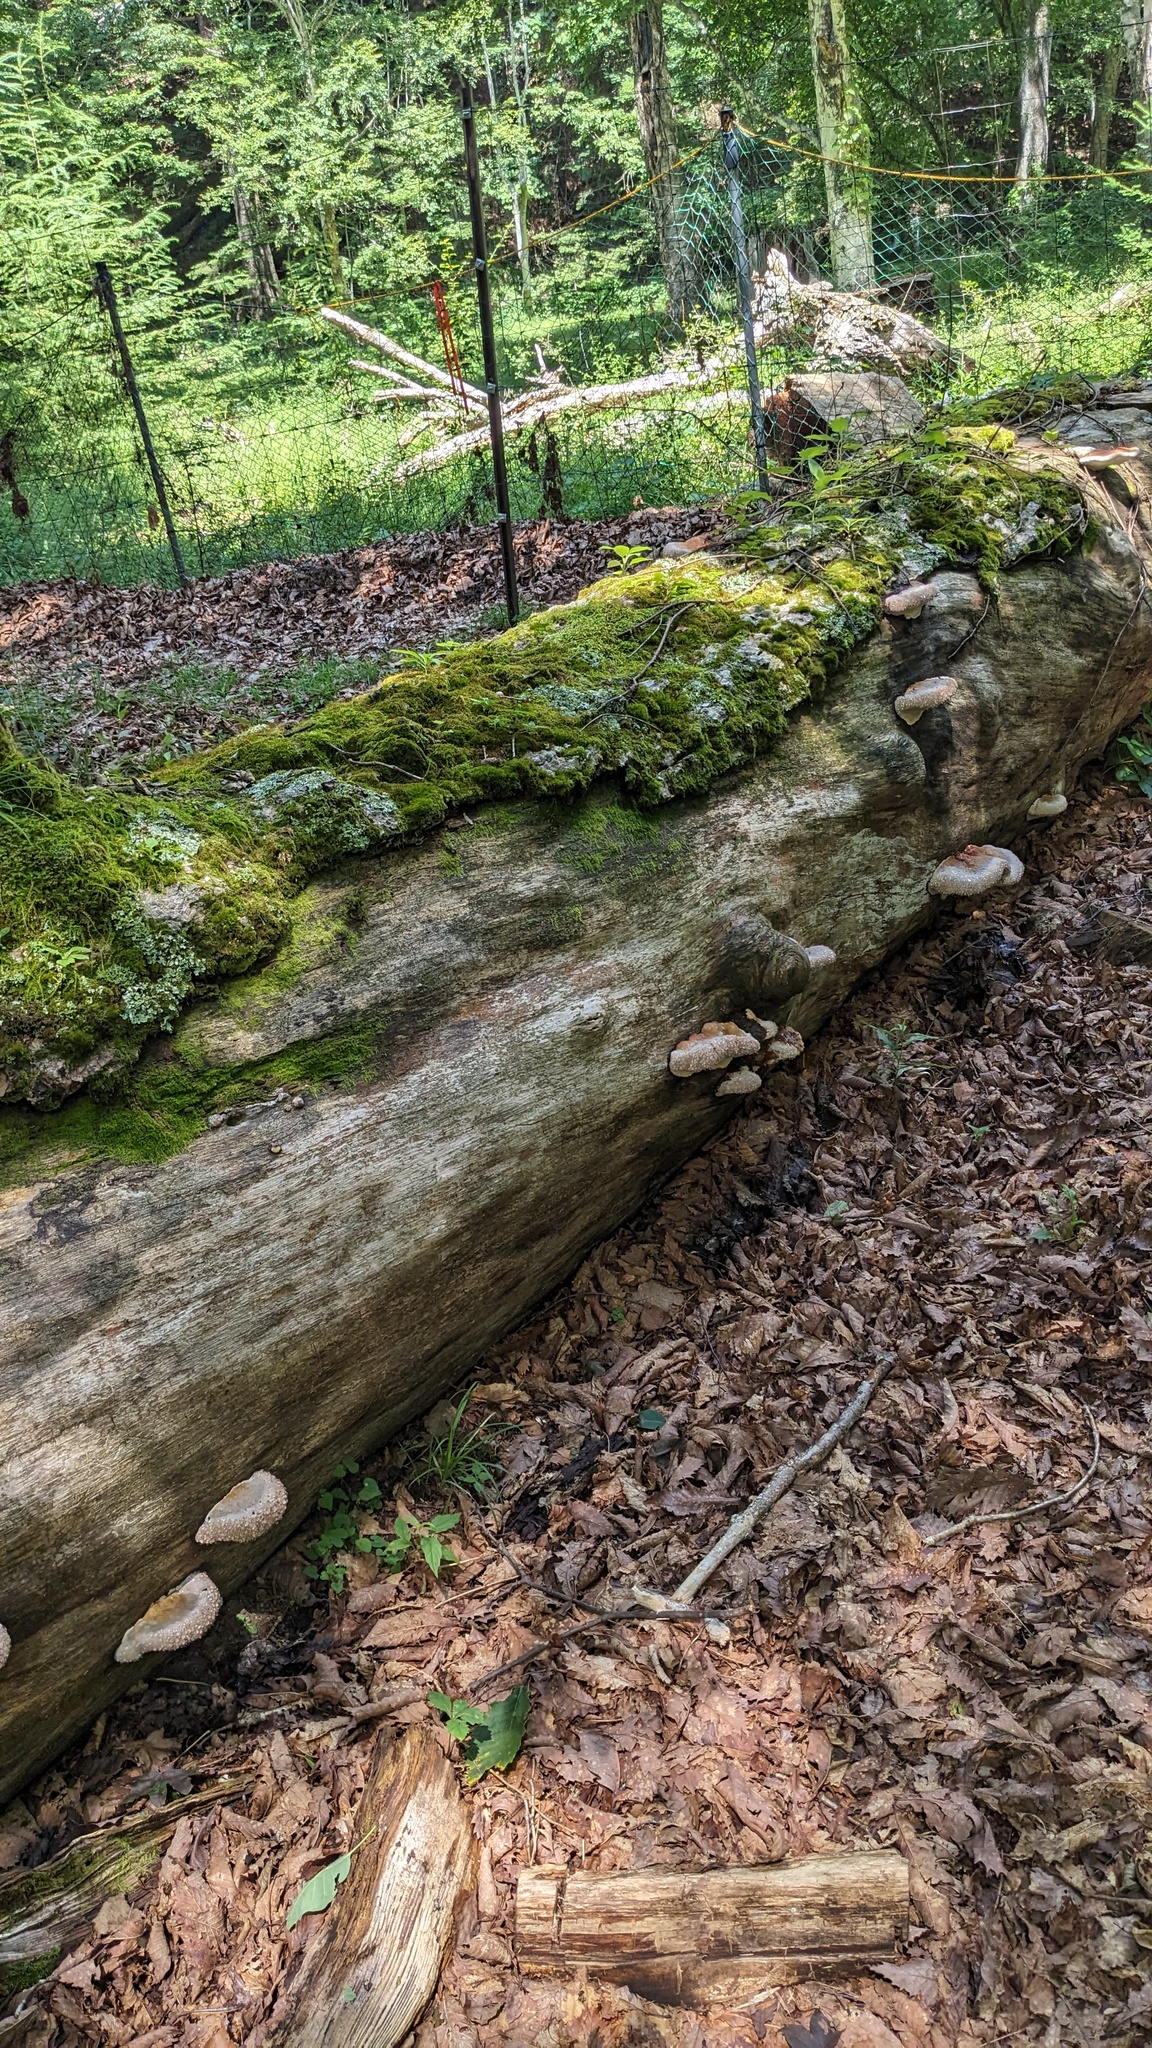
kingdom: Fungi
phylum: Basidiomycota
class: Agaricomycetes
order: Polyporales
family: Fomitopsidaceae
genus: Fomitopsis
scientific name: Fomitopsis pinicola
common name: Red-belted bracket
